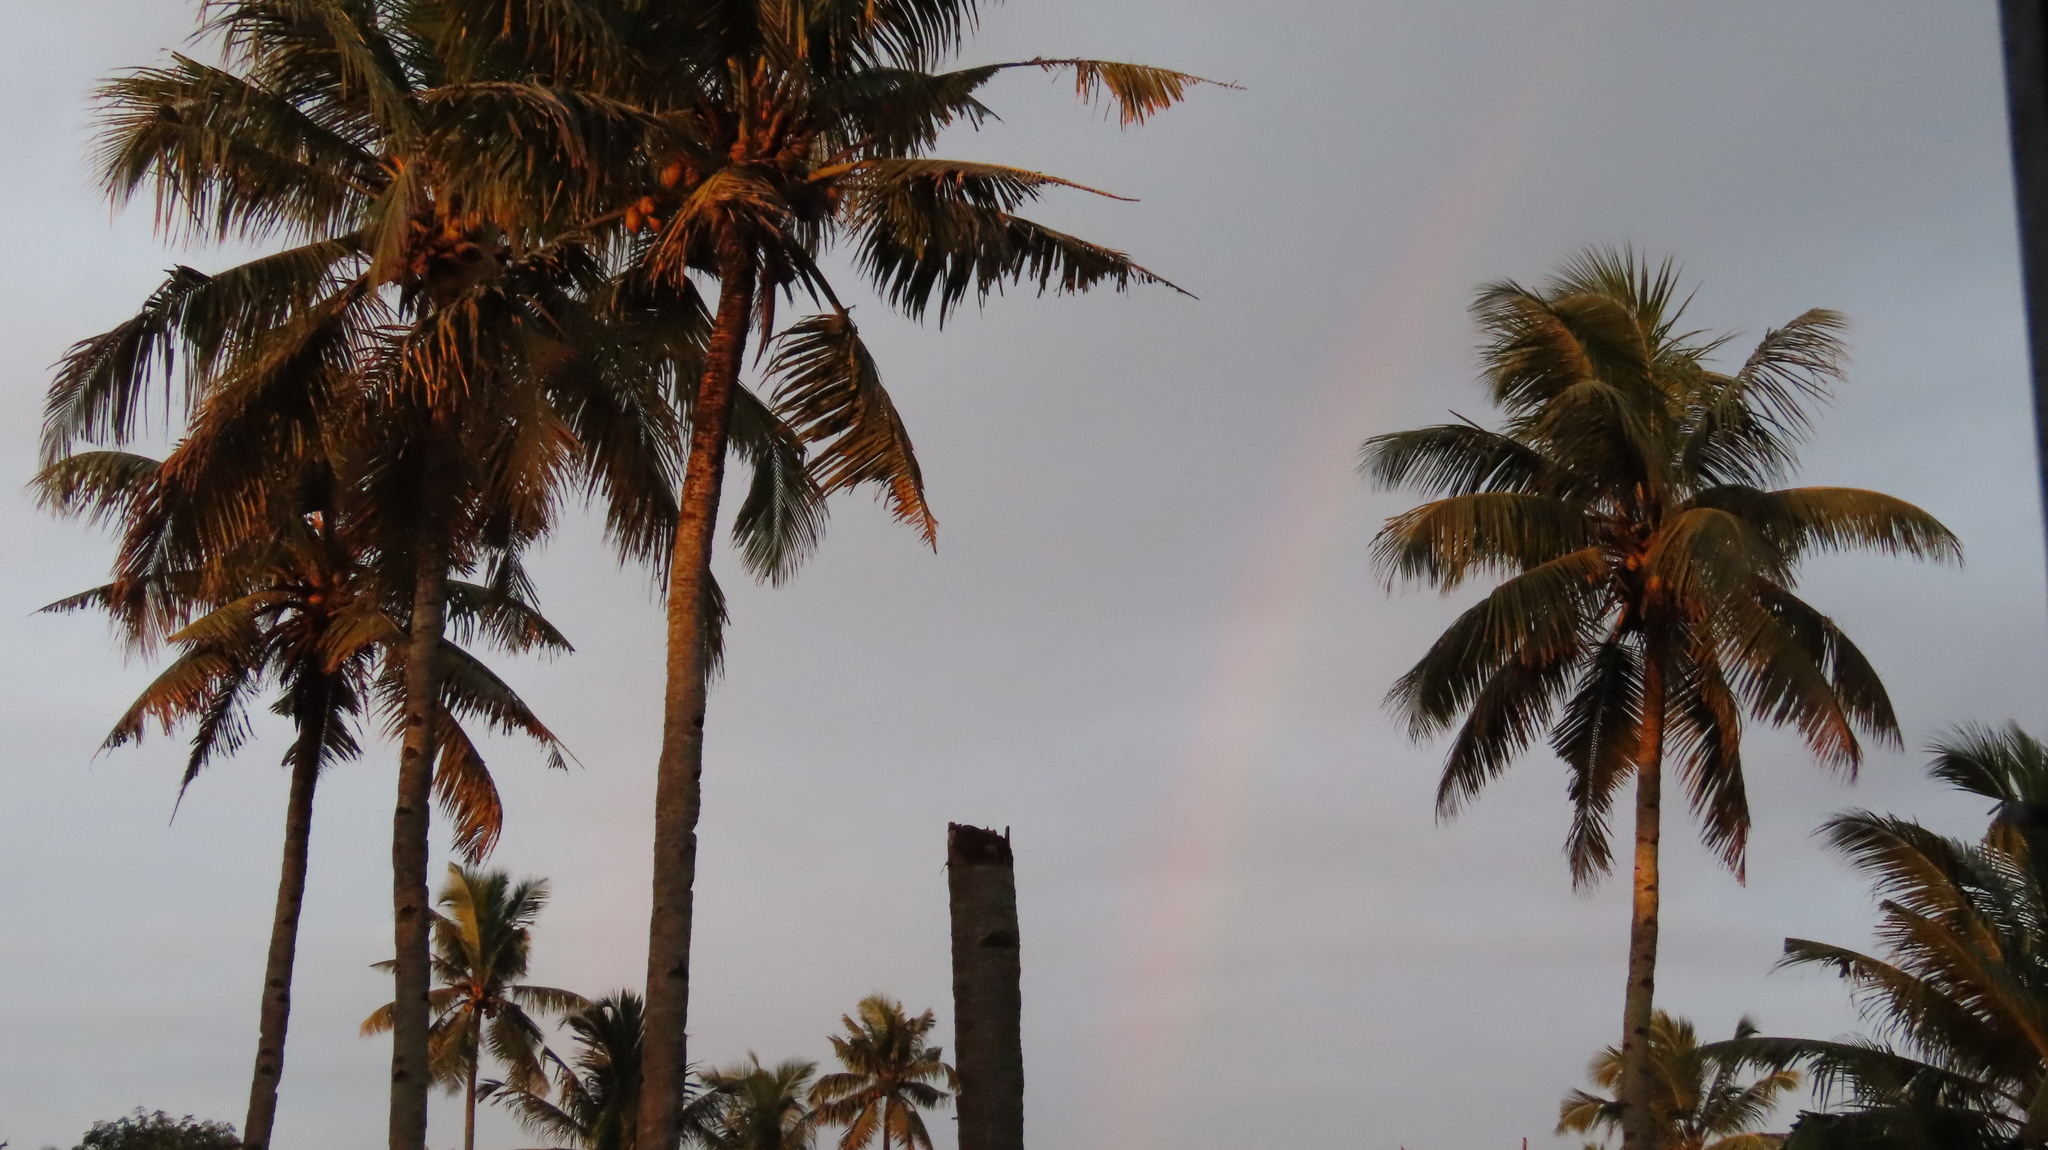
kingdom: Plantae
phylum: Tracheophyta
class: Liliopsida
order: Arecales
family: Arecaceae
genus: Cocos
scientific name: Cocos nucifera
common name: Coconut palm
